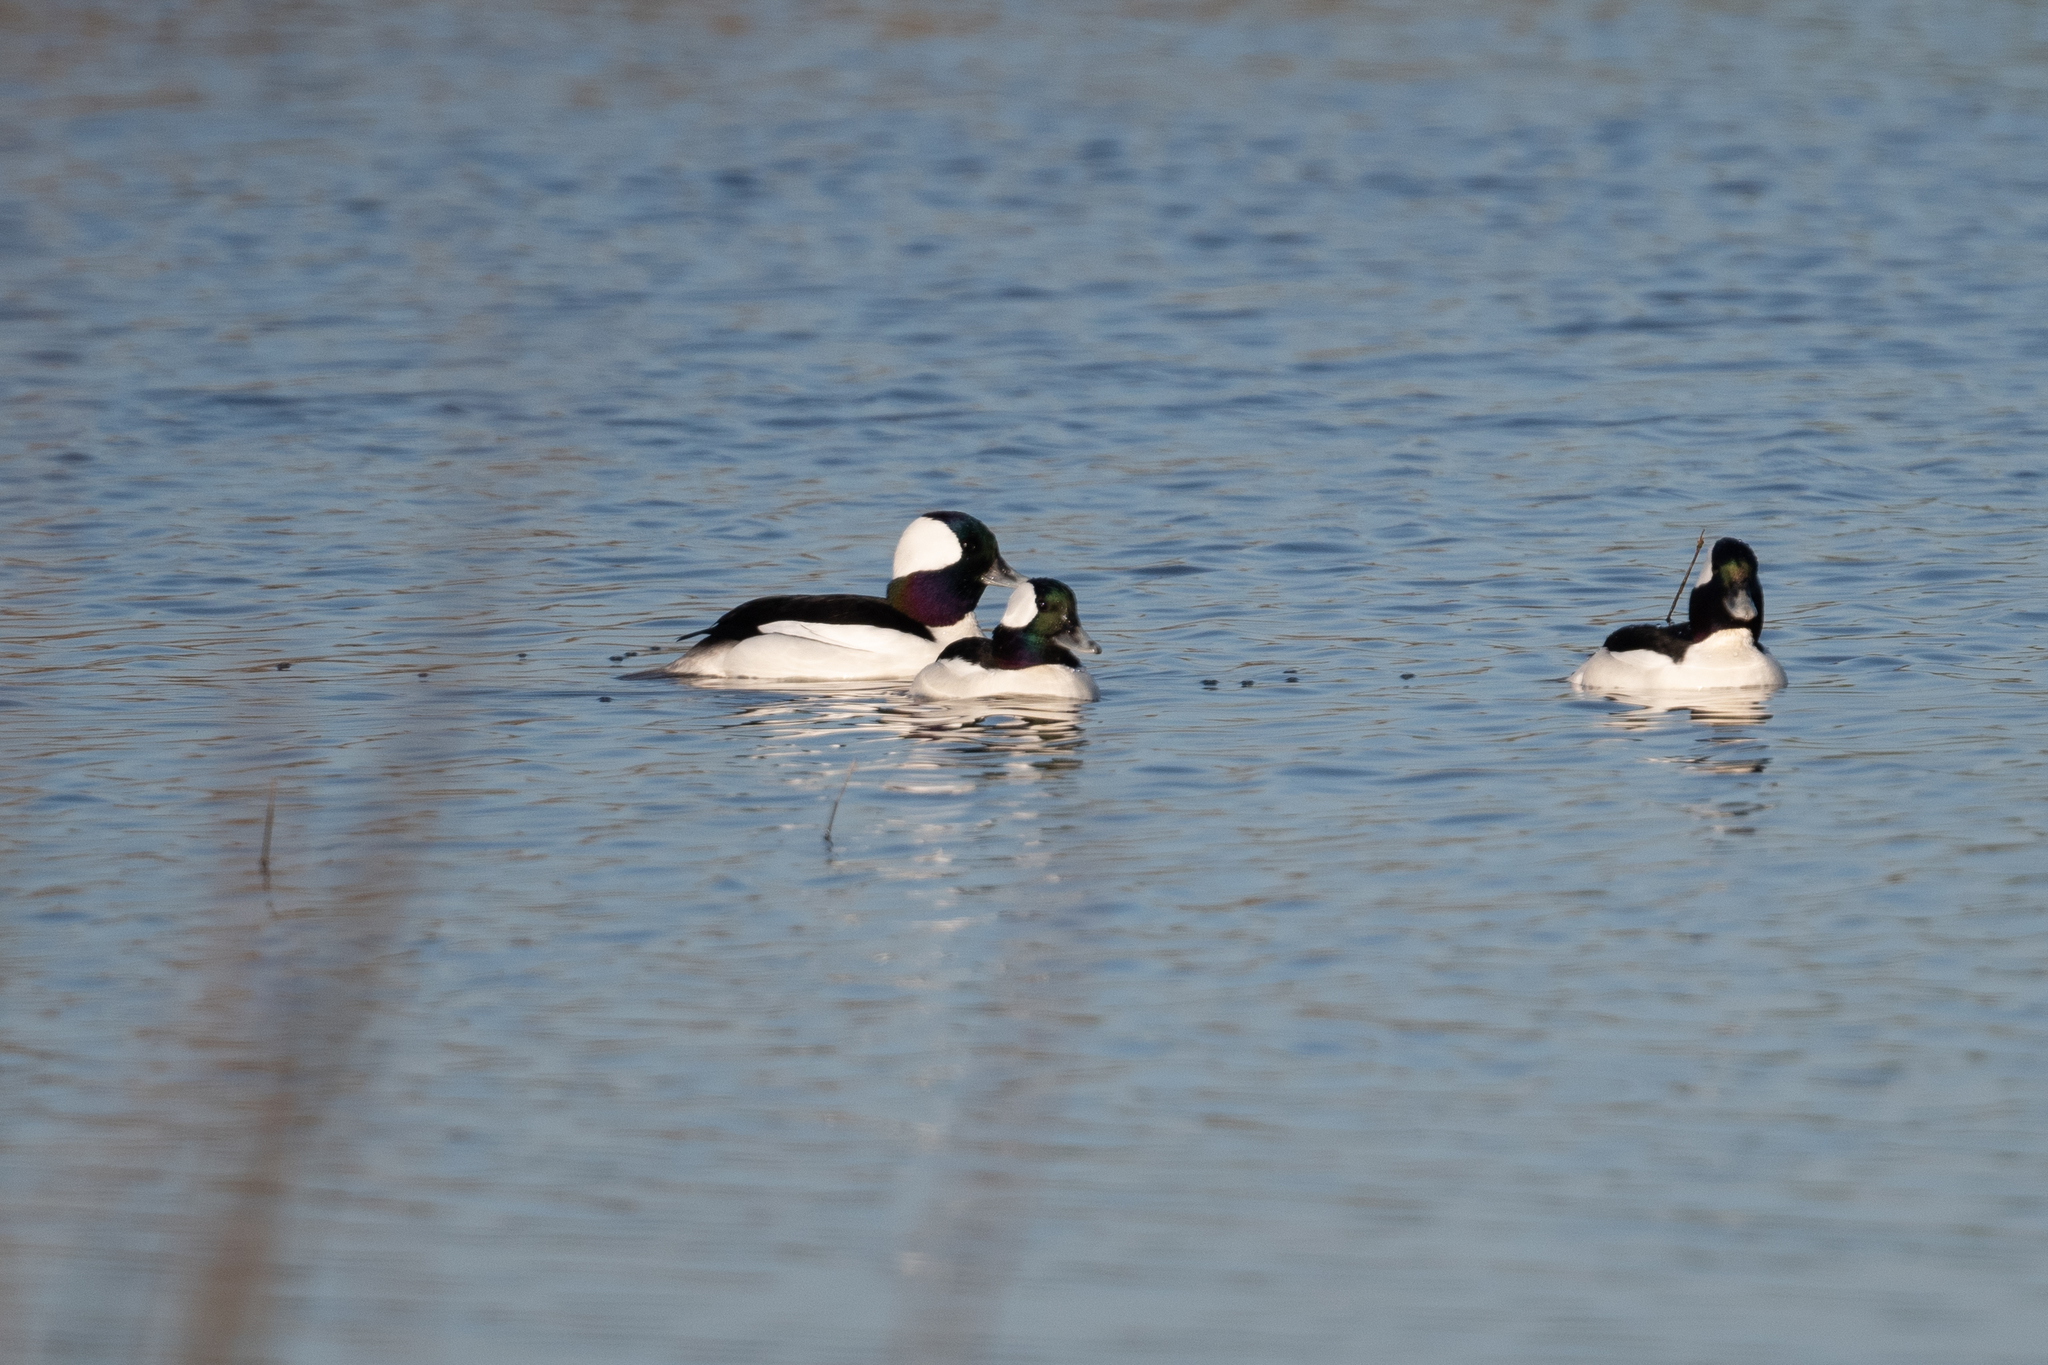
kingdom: Animalia
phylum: Chordata
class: Aves
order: Anseriformes
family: Anatidae
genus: Bucephala
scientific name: Bucephala albeola
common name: Bufflehead
